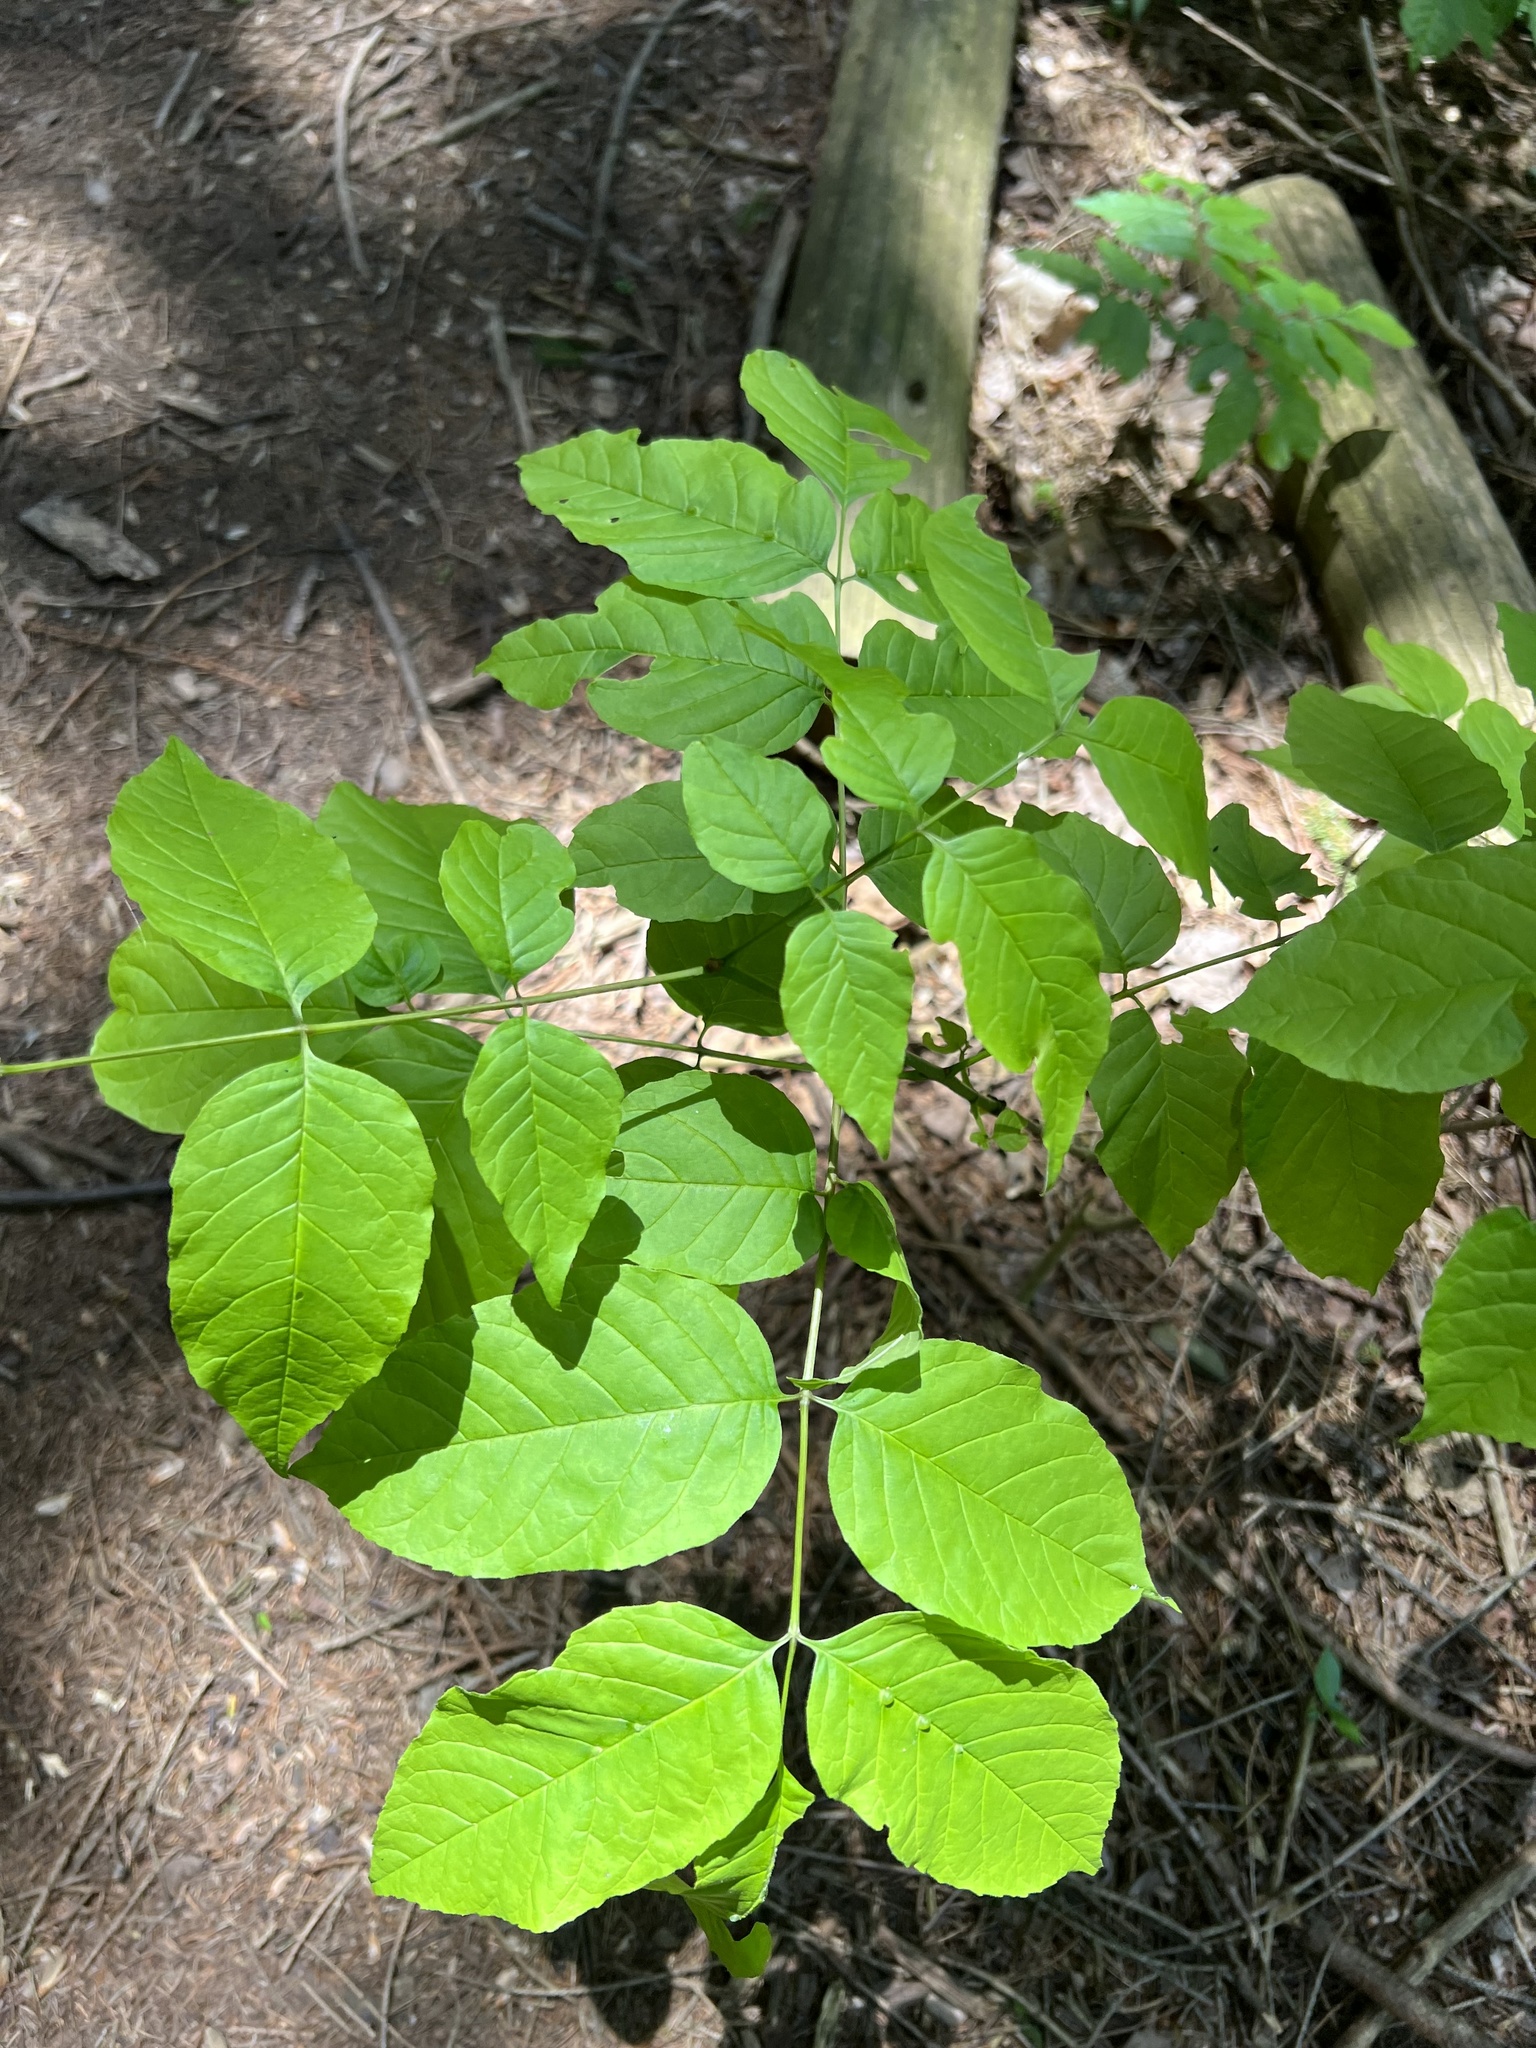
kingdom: Animalia
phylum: Arthropoda
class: Insecta
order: Diptera
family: Cecidomyiidae
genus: Dasineura
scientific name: Dasineura pellex
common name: Ash bullet gall midge
